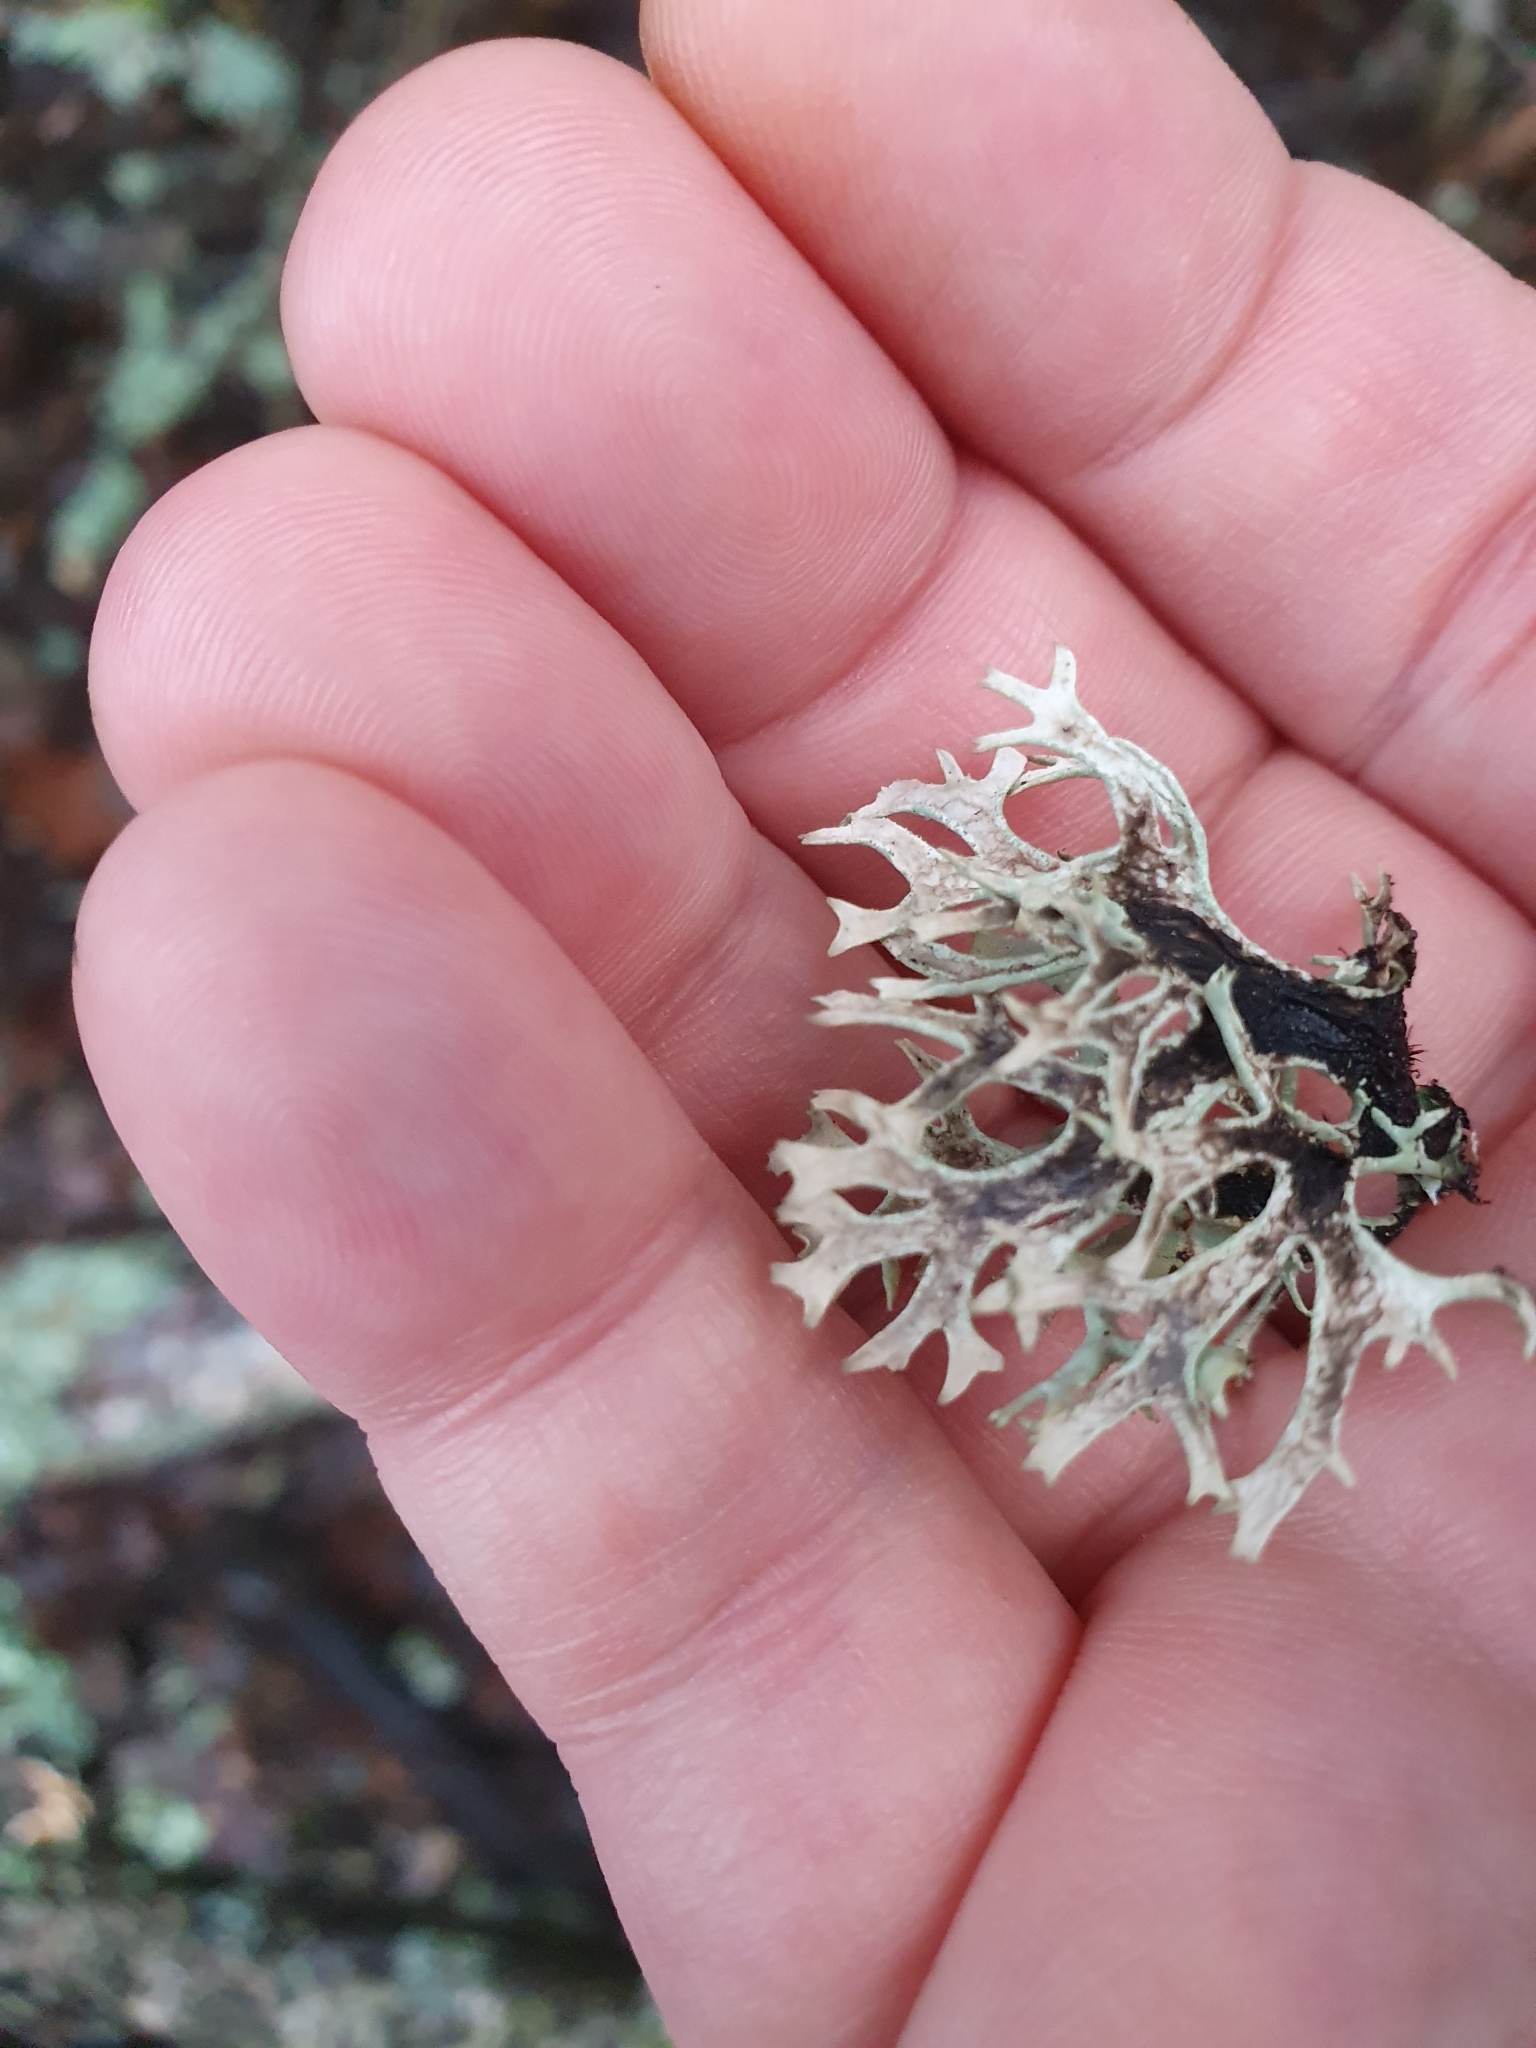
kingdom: Fungi
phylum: Ascomycota
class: Lecanoromycetes
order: Lecanorales
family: Parmeliaceae
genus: Pseudevernia
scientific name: Pseudevernia furfuracea
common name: Tree moss
